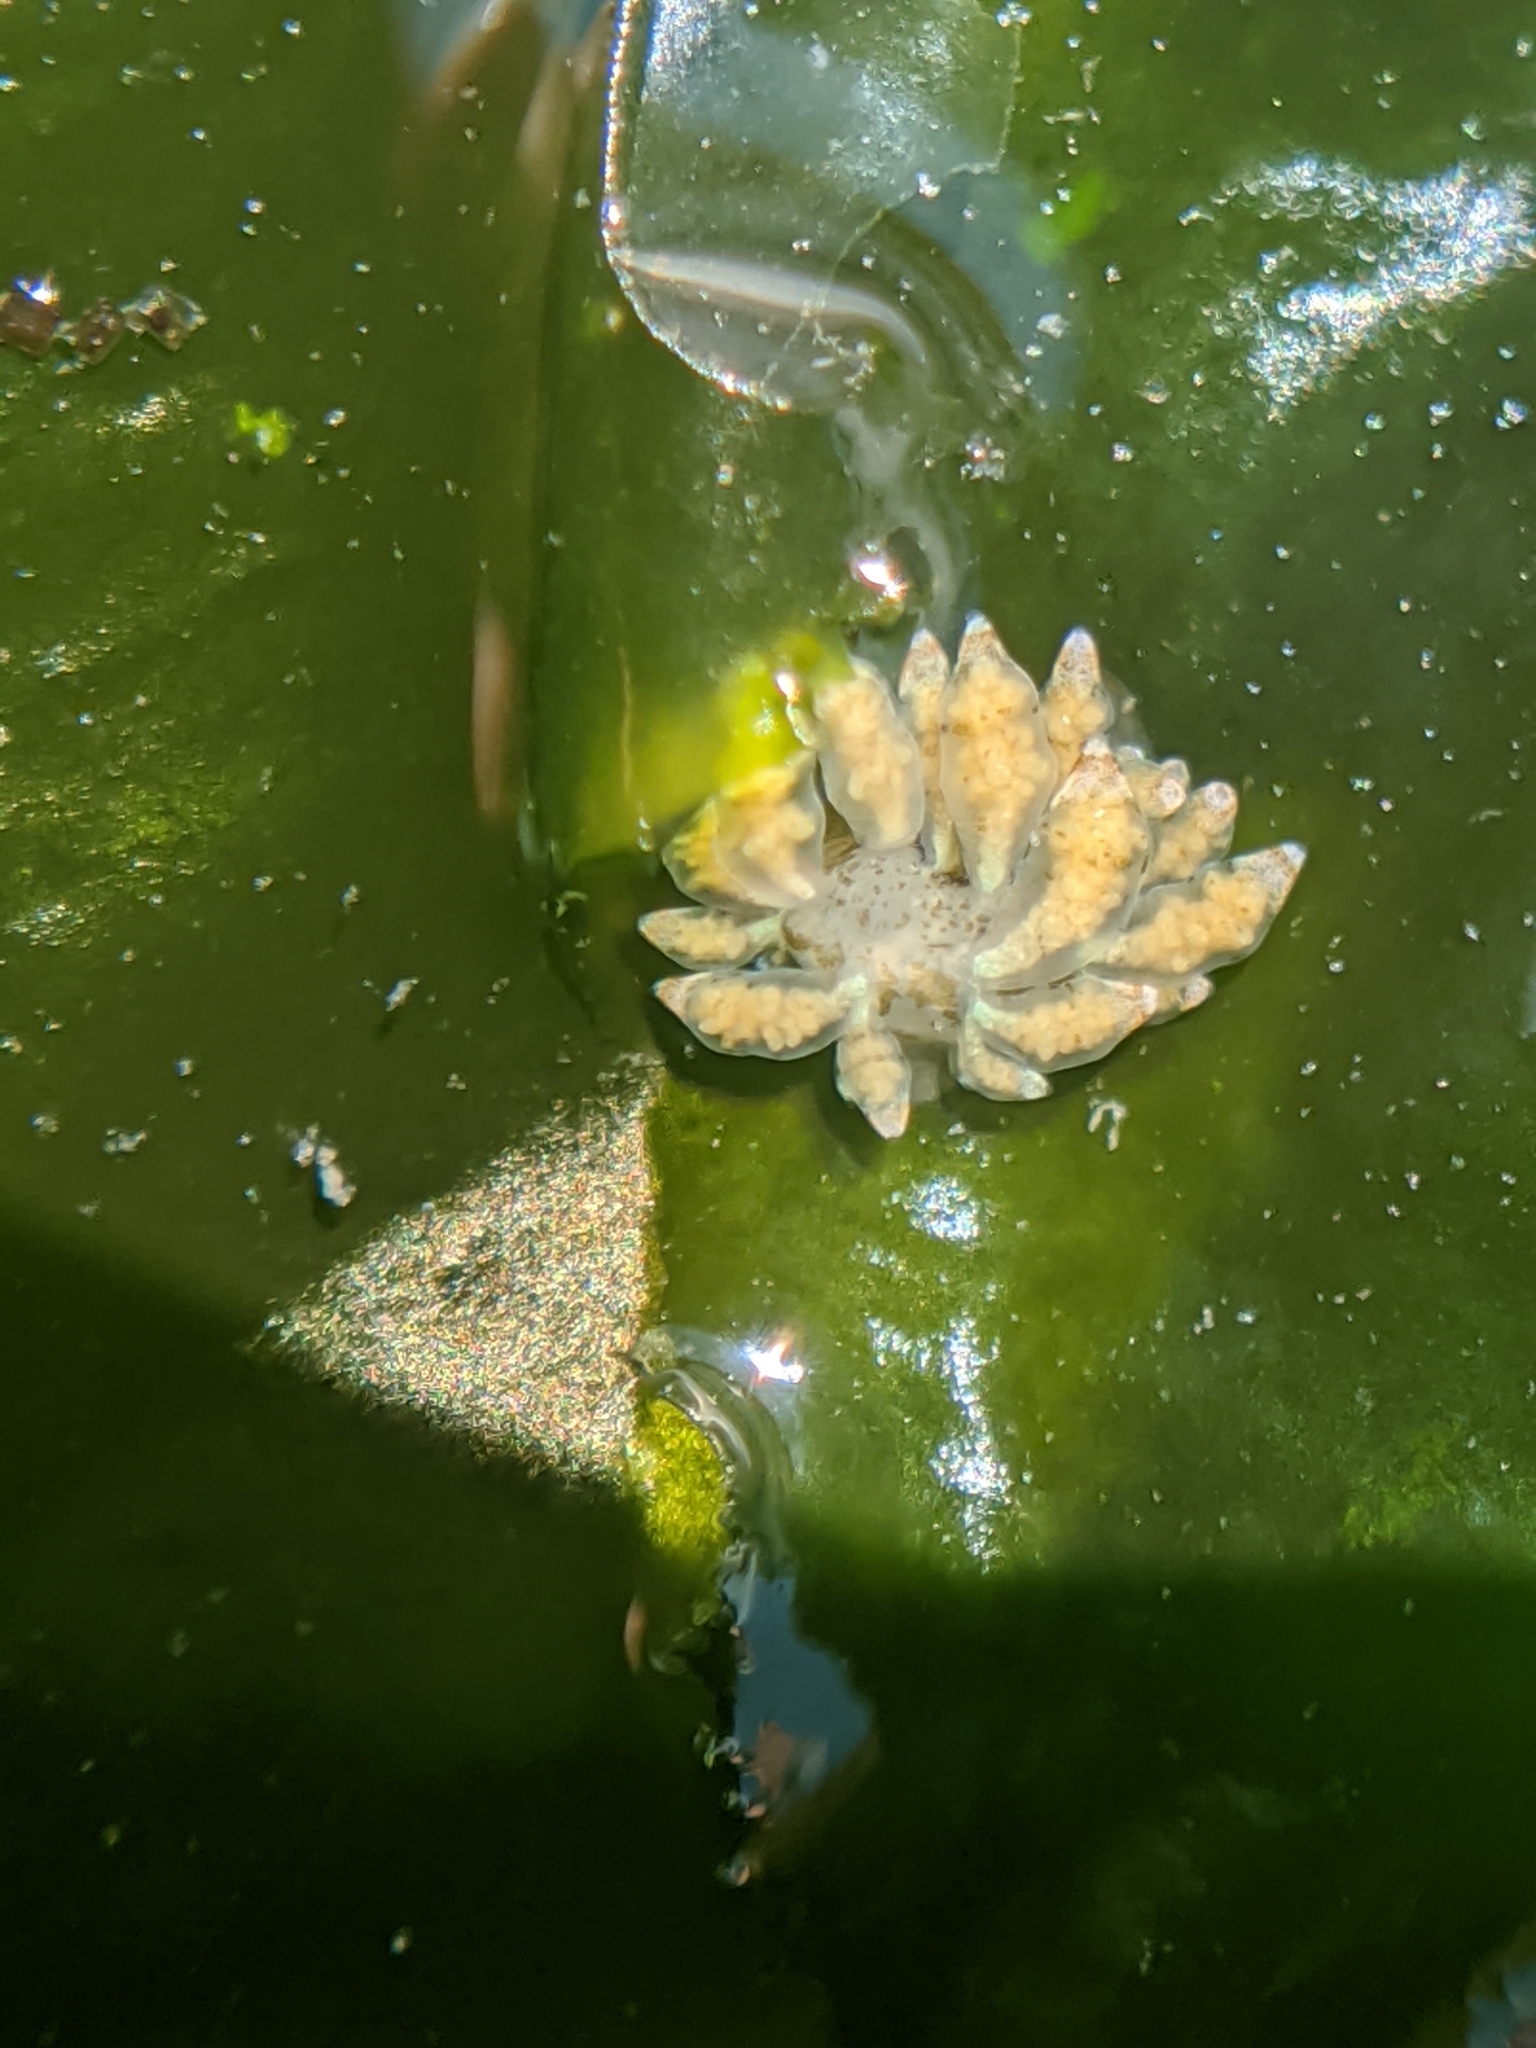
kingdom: Animalia
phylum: Mollusca
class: Gastropoda
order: Nudibranchia
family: Eubranchidae
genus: Eubranchus
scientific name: Eubranchus rustyus
